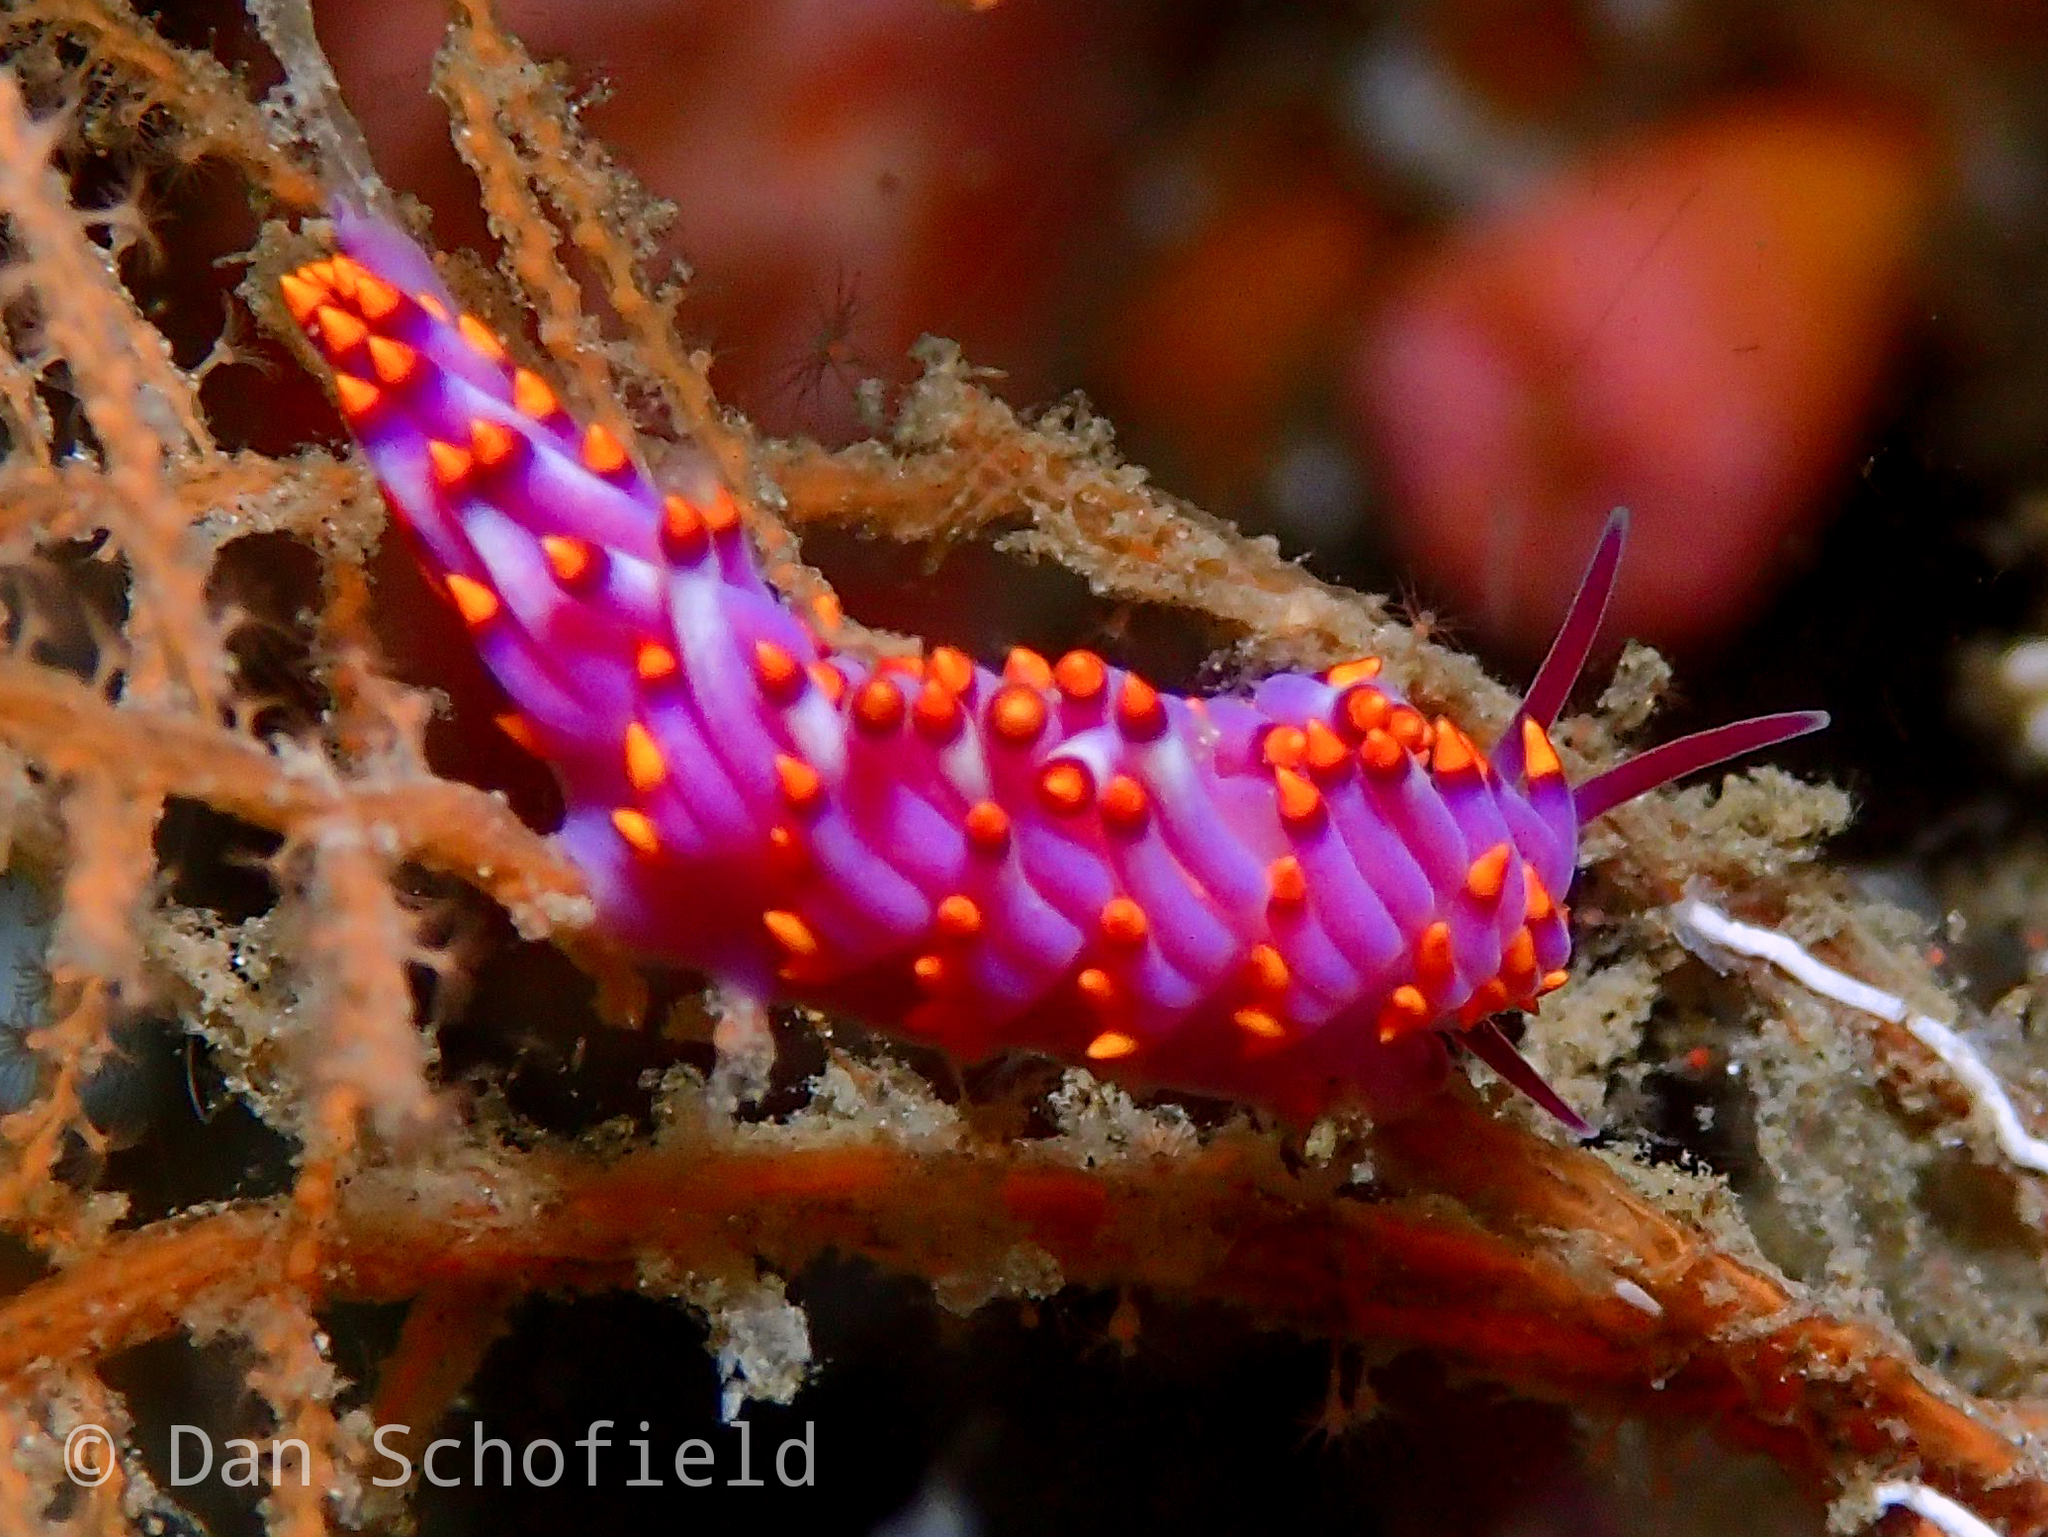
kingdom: Animalia
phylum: Mollusca
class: Gastropoda
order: Nudibranchia
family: Trinchesiidae
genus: Trinchesia
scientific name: Trinchesia sibogae
